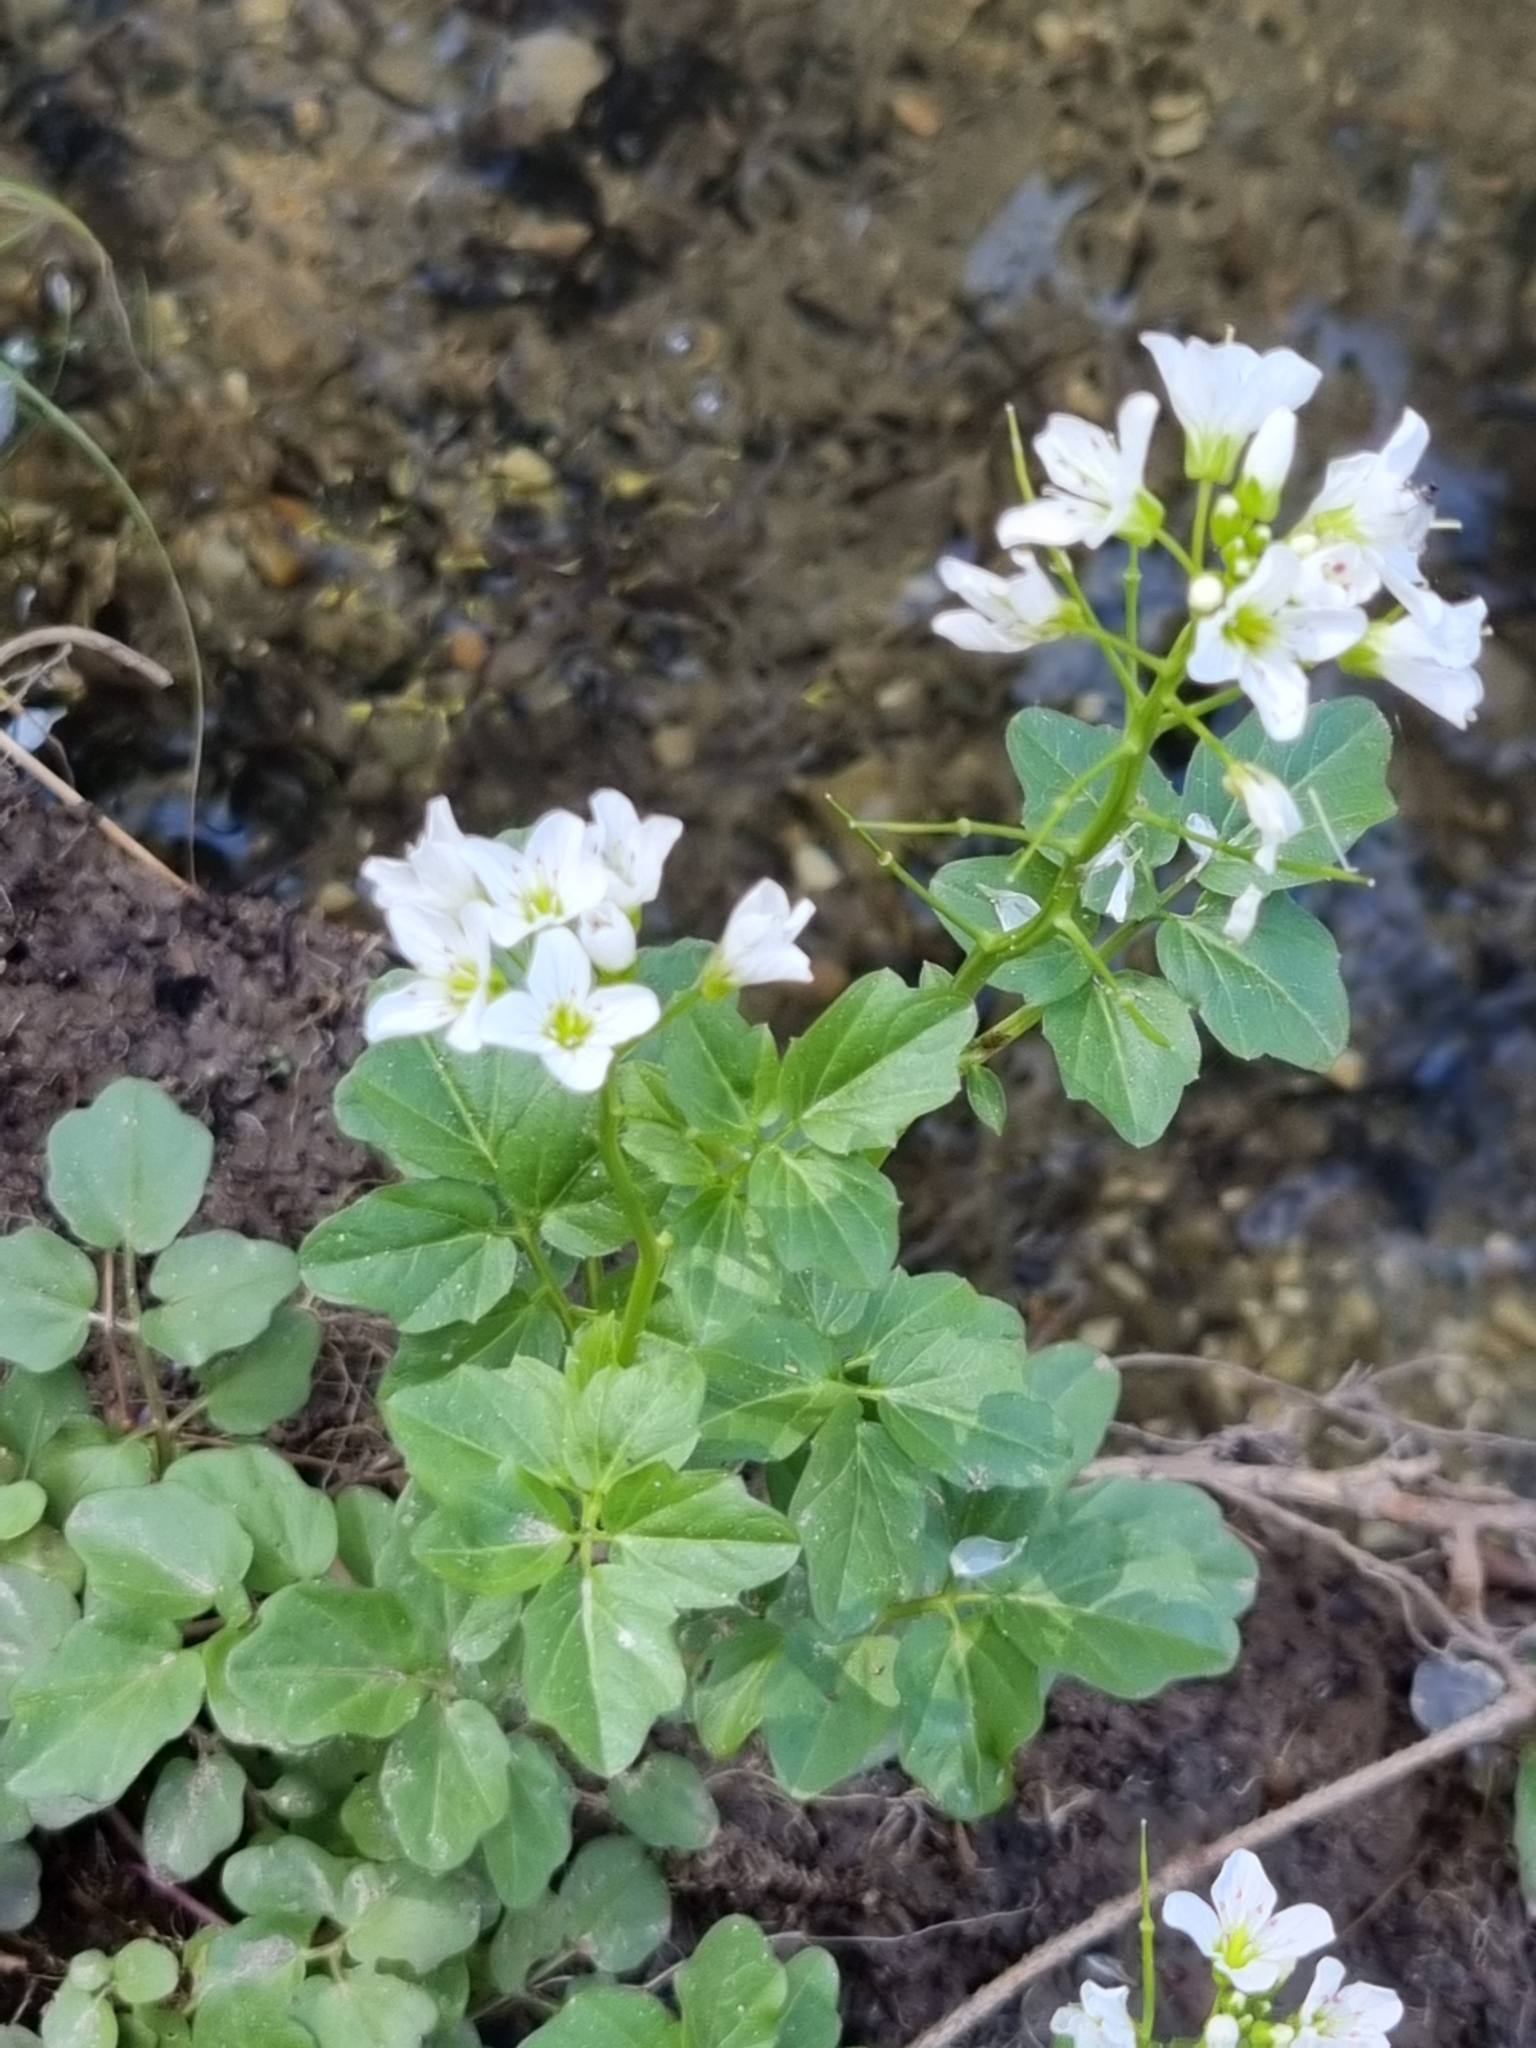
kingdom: Plantae
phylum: Tracheophyta
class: Magnoliopsida
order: Brassicales
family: Brassicaceae
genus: Cardamine
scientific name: Cardamine amara
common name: Large bitter-cress
